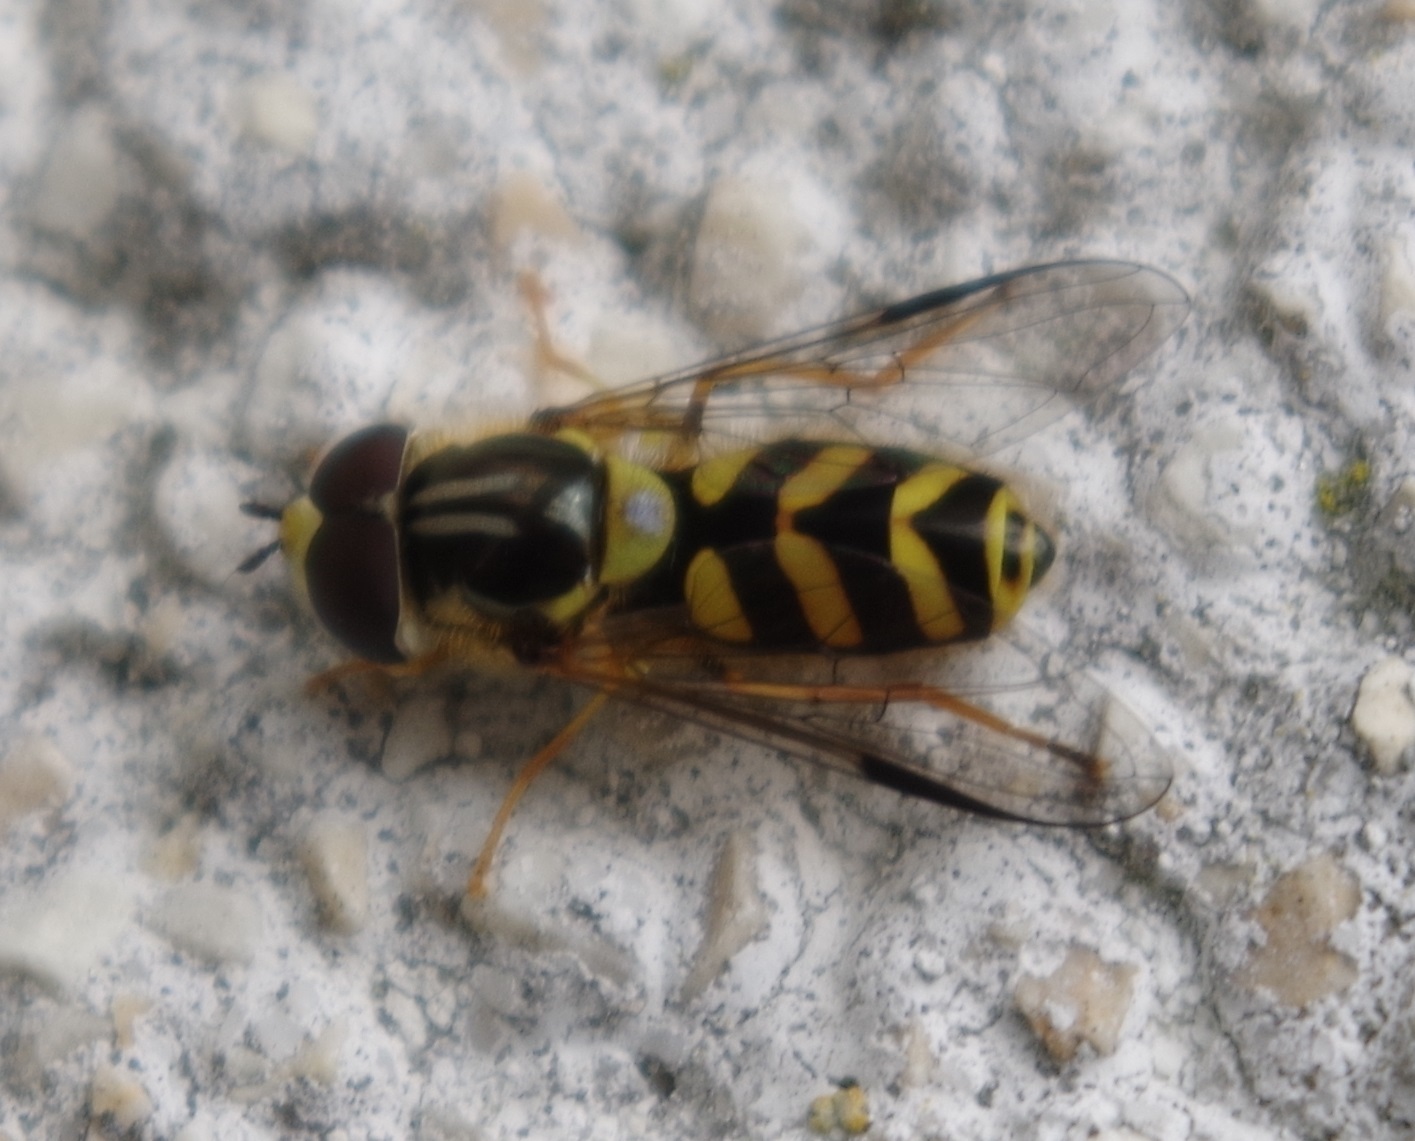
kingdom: Animalia
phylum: Arthropoda
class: Insecta
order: Diptera
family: Syrphidae
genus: Dasysyrphus
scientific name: Dasysyrphus albostriatus
